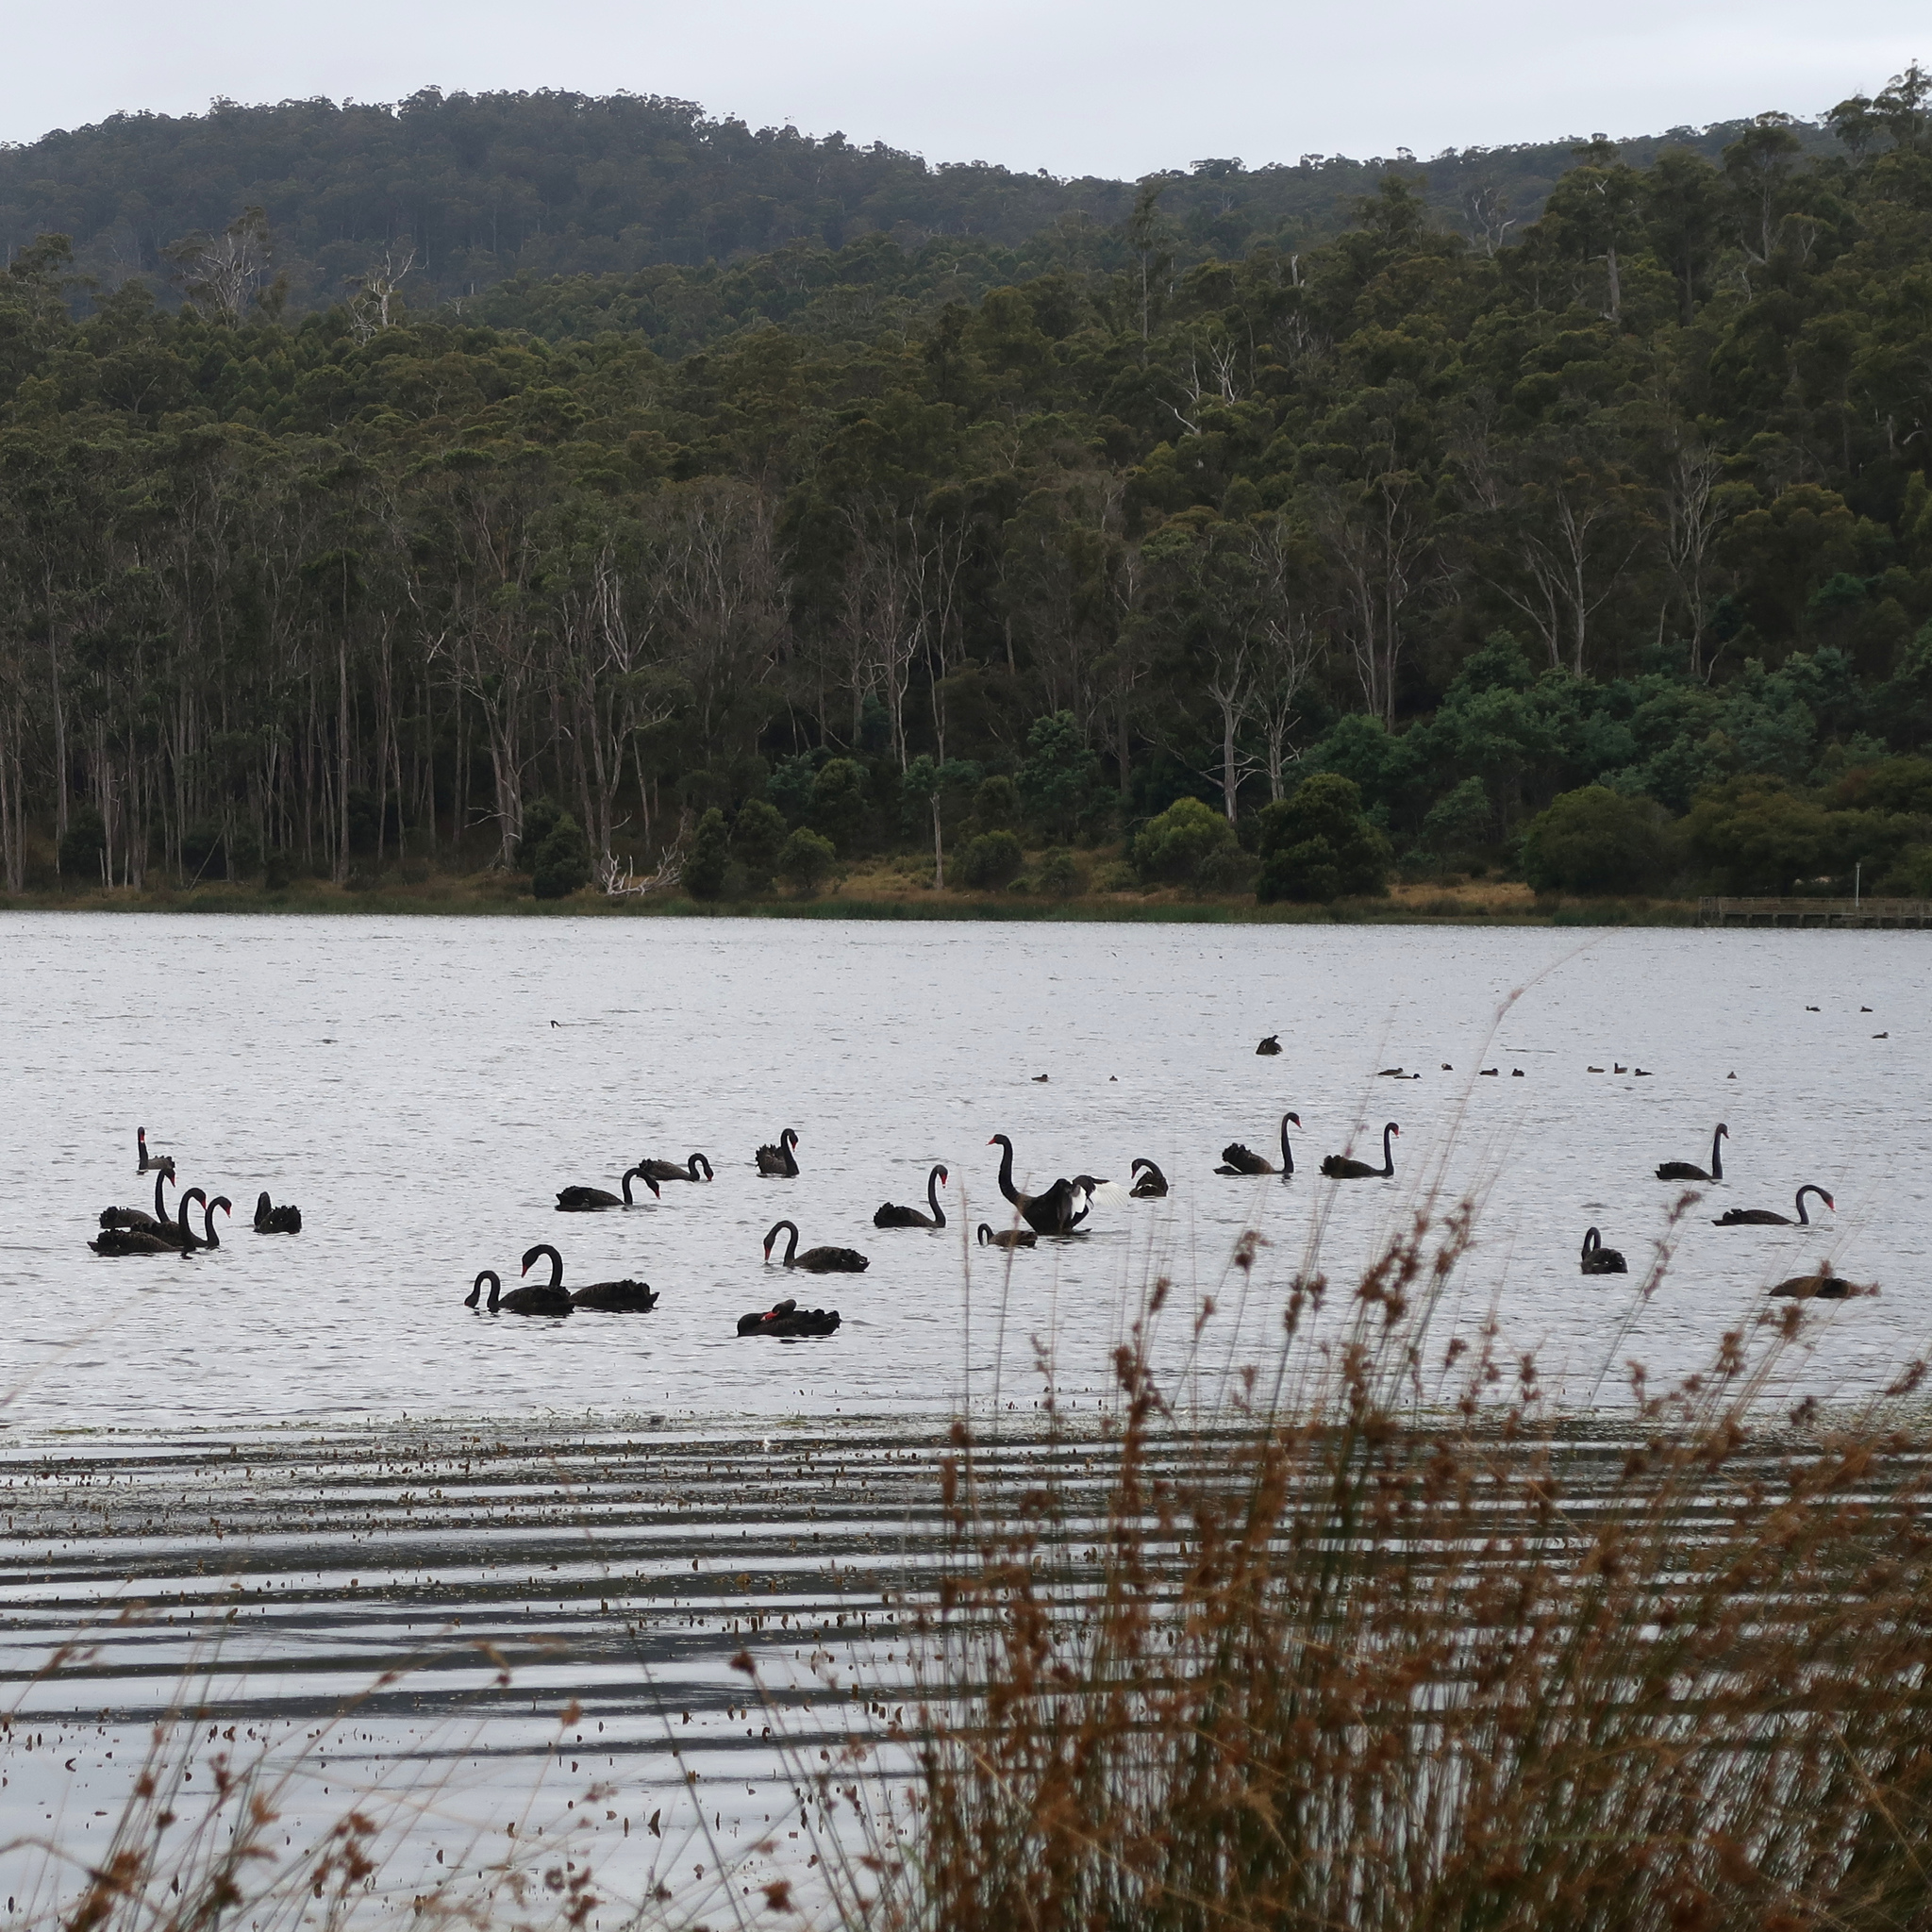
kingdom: Animalia
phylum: Chordata
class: Aves
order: Anseriformes
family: Anatidae
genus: Cygnus
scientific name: Cygnus atratus
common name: Black swan
